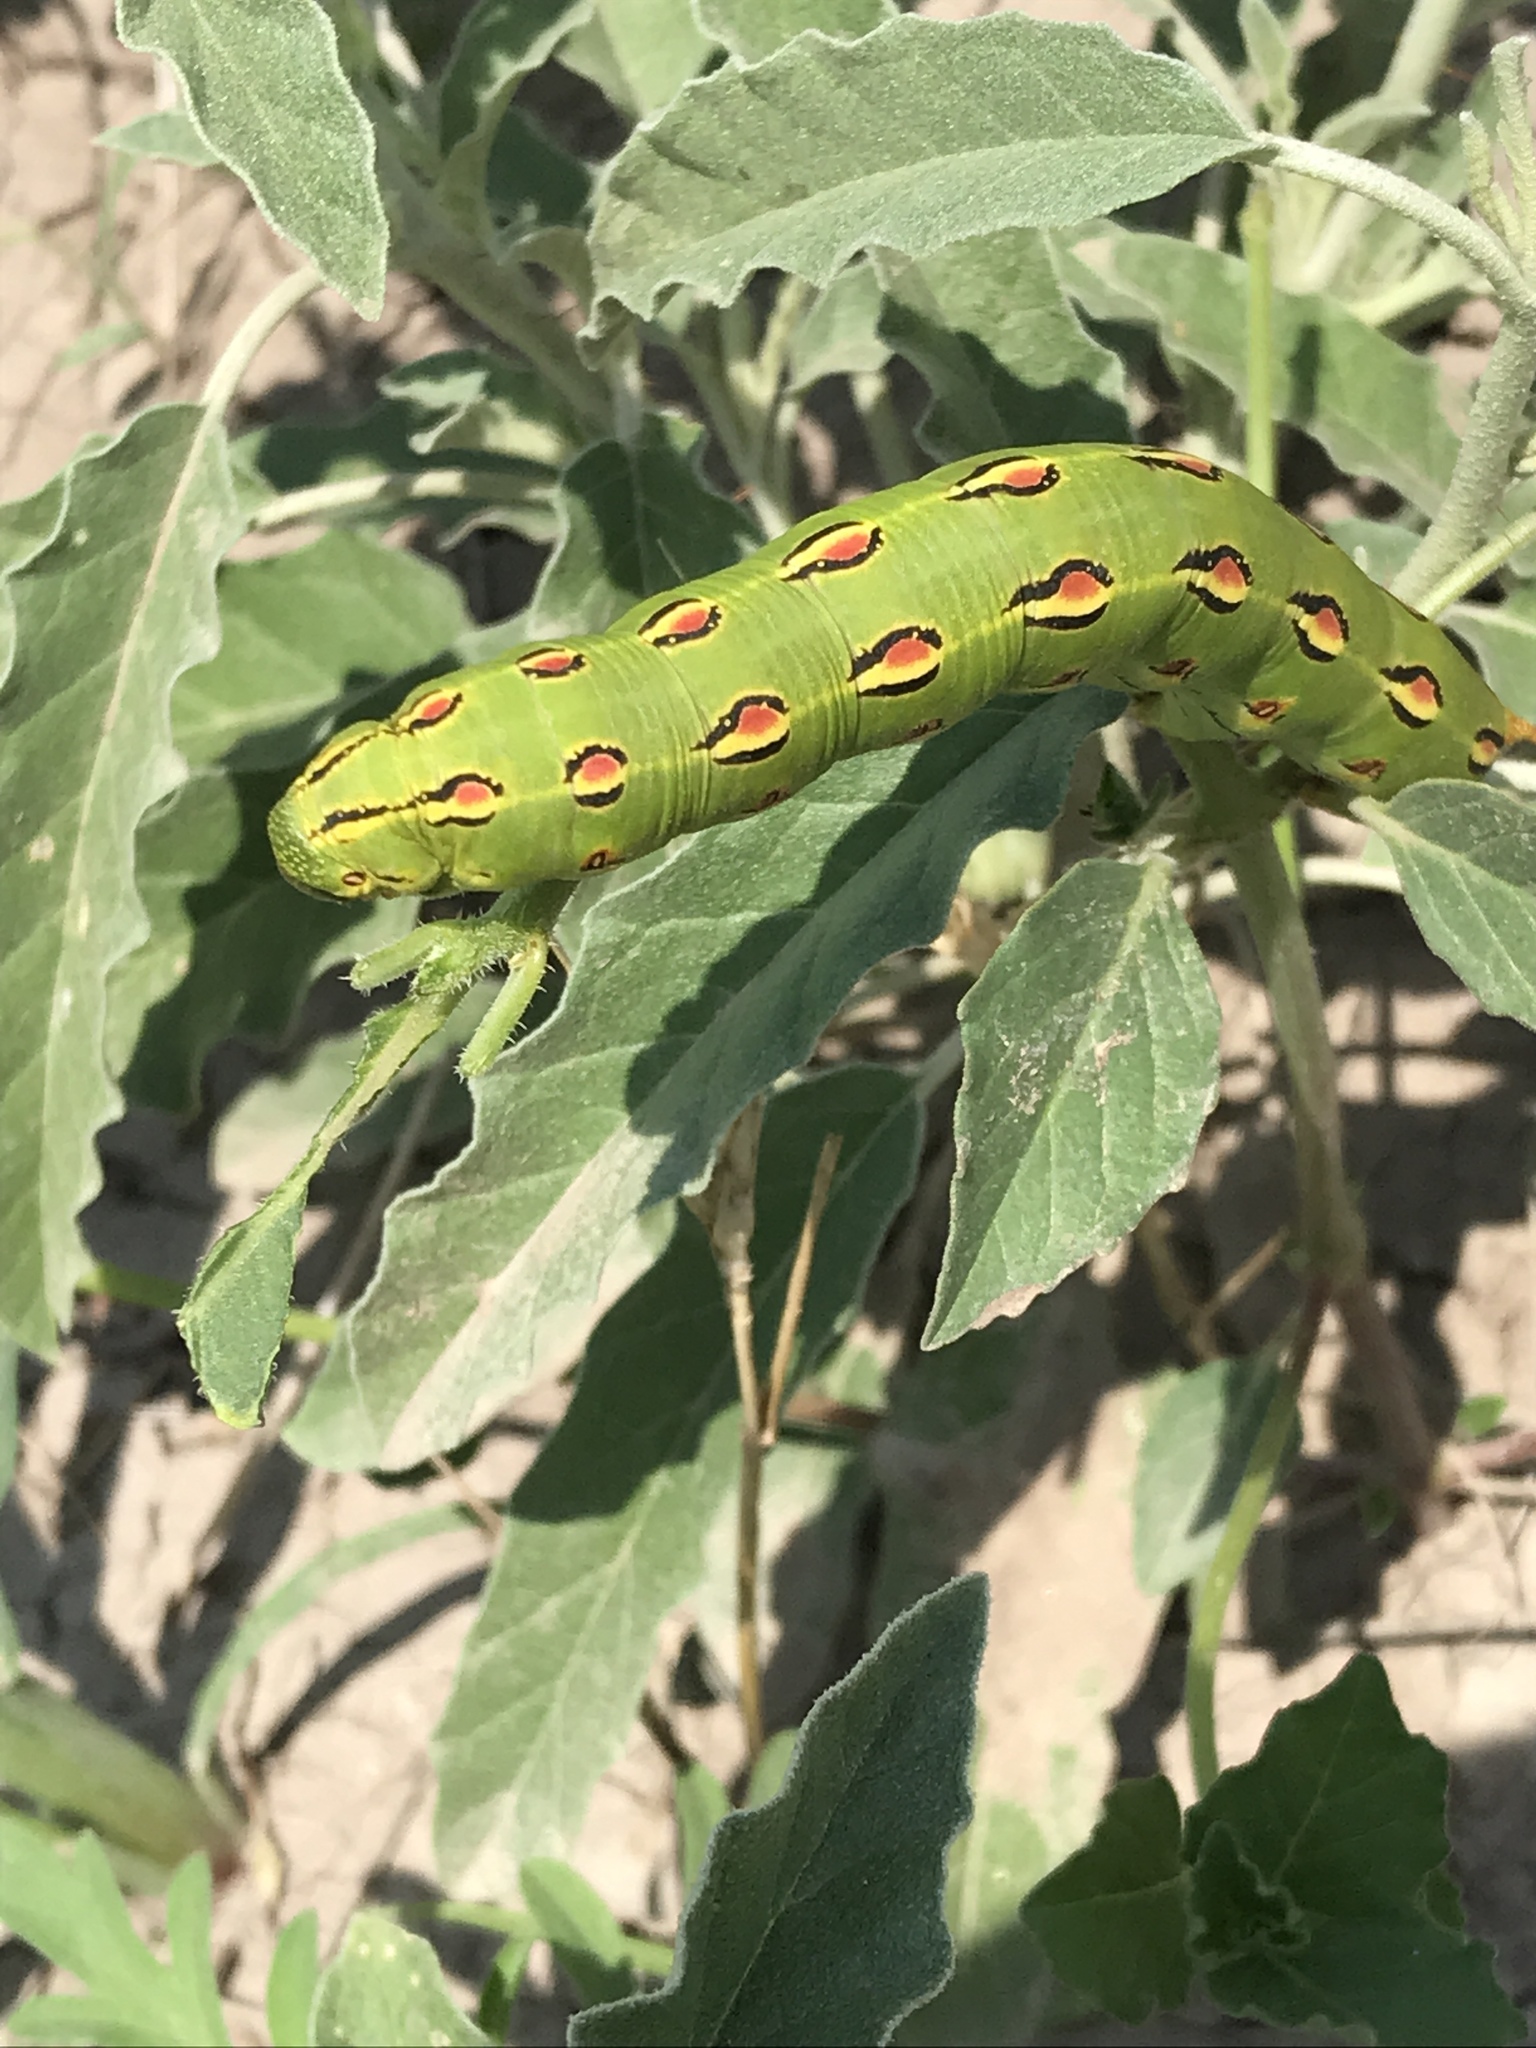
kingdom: Animalia
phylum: Arthropoda
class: Insecta
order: Lepidoptera
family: Sphingidae
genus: Hyles
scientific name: Hyles lineata
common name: White-lined sphinx
